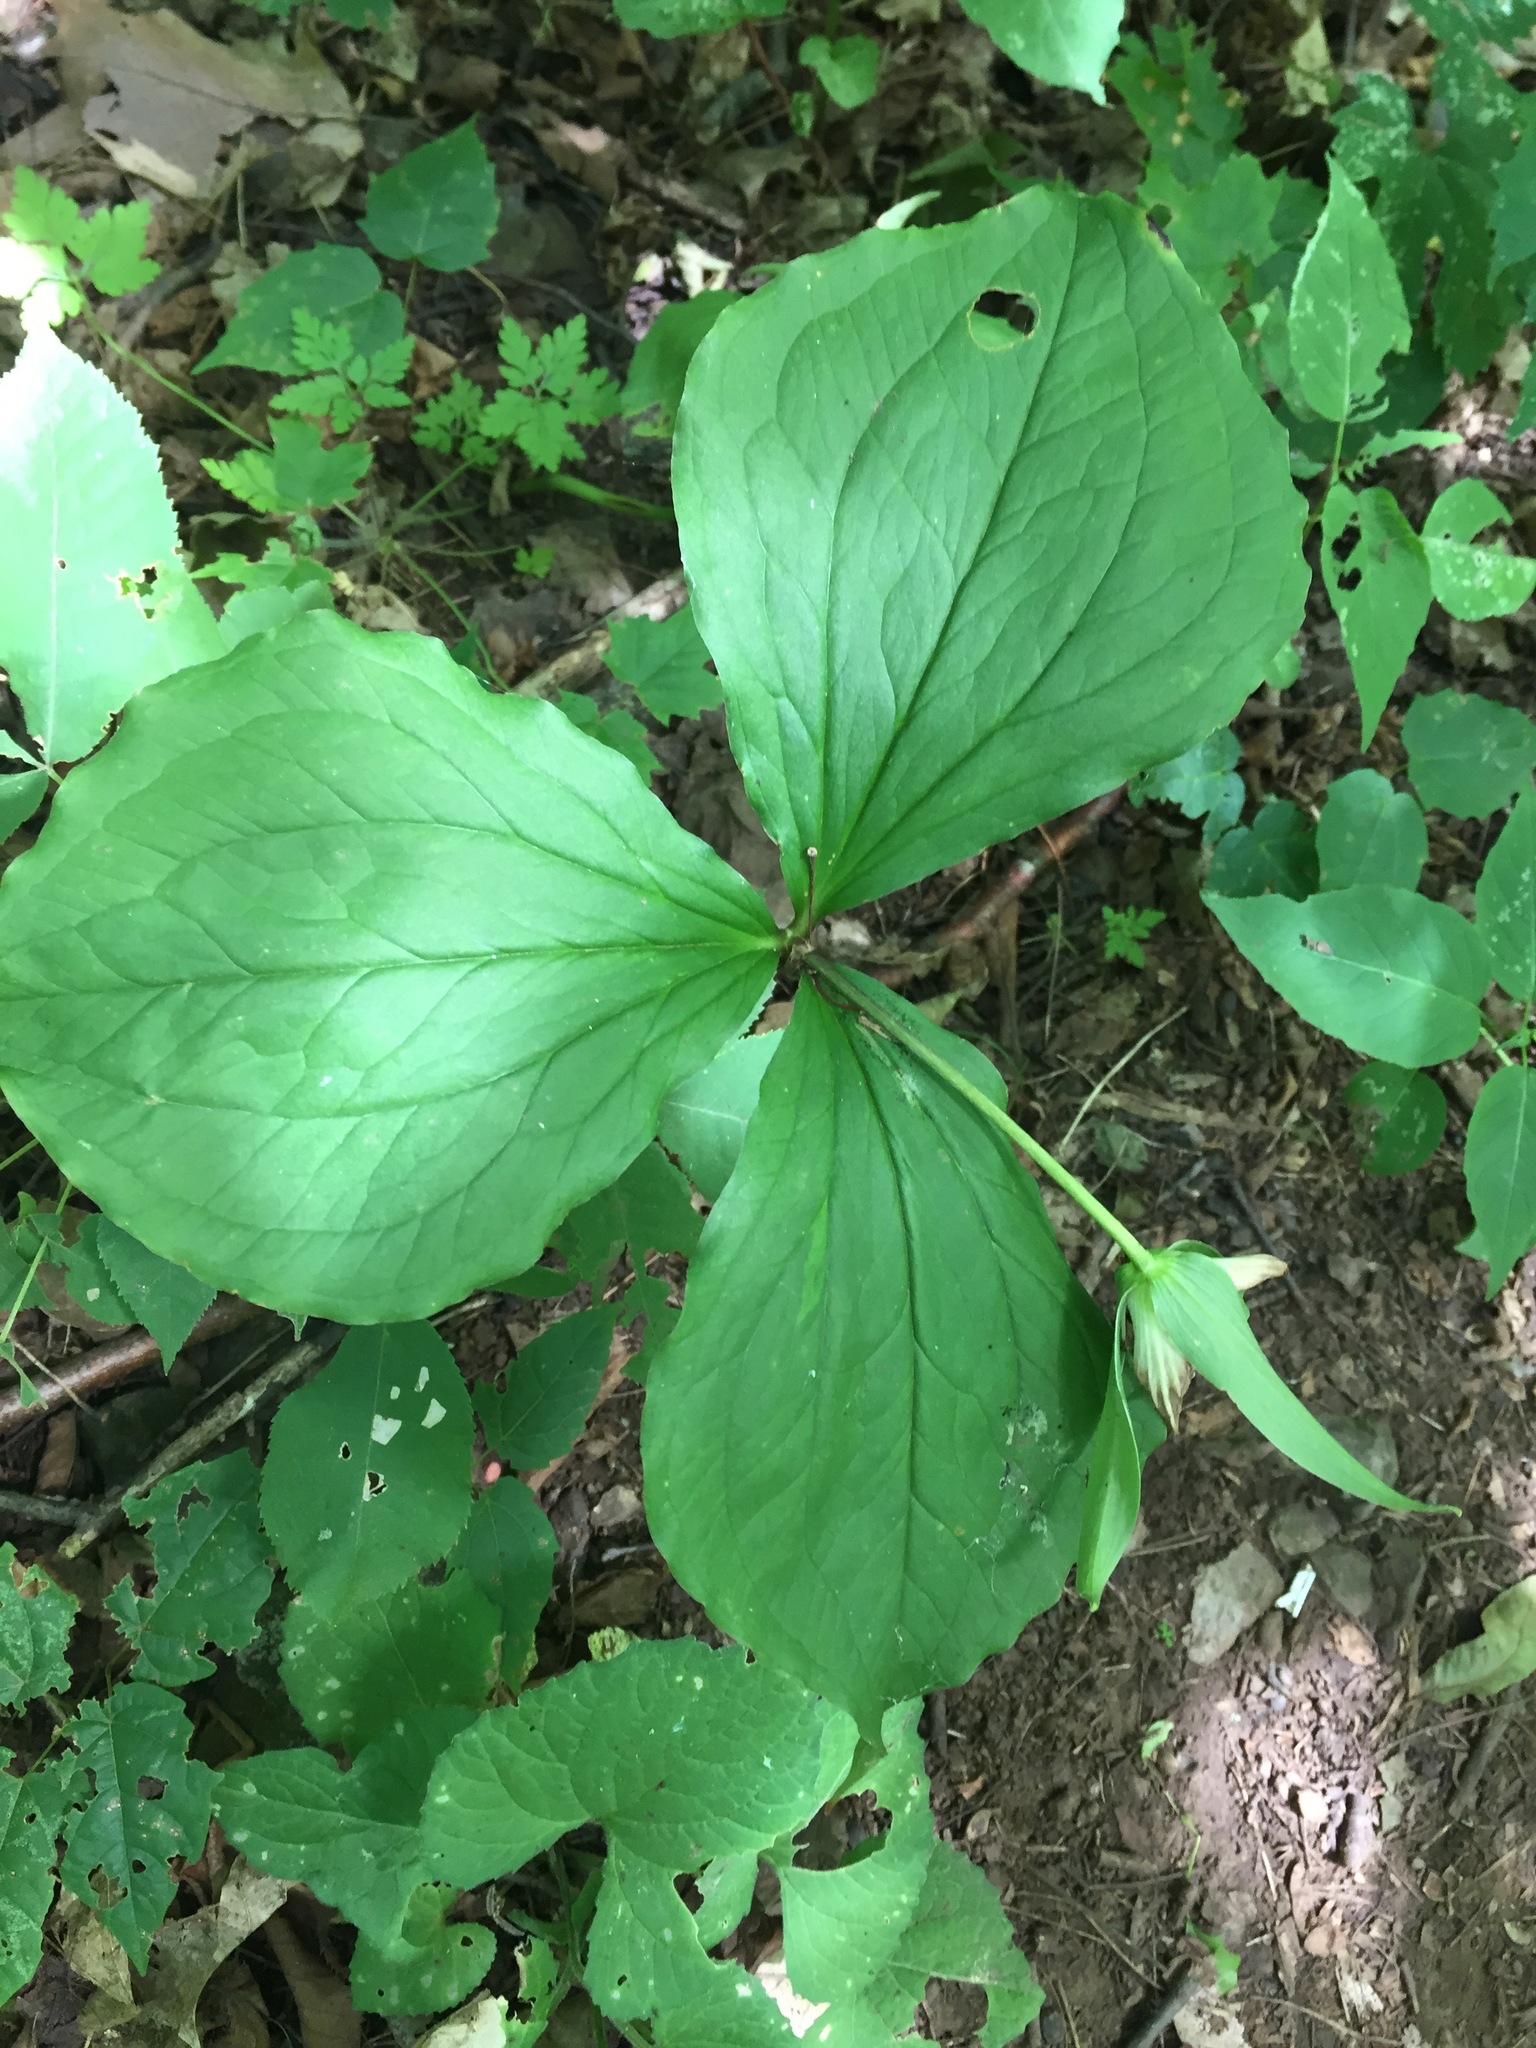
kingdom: Plantae
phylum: Tracheophyta
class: Liliopsida
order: Liliales
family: Melanthiaceae
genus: Trillium
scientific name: Trillium grandiflorum
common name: Great white trillium
